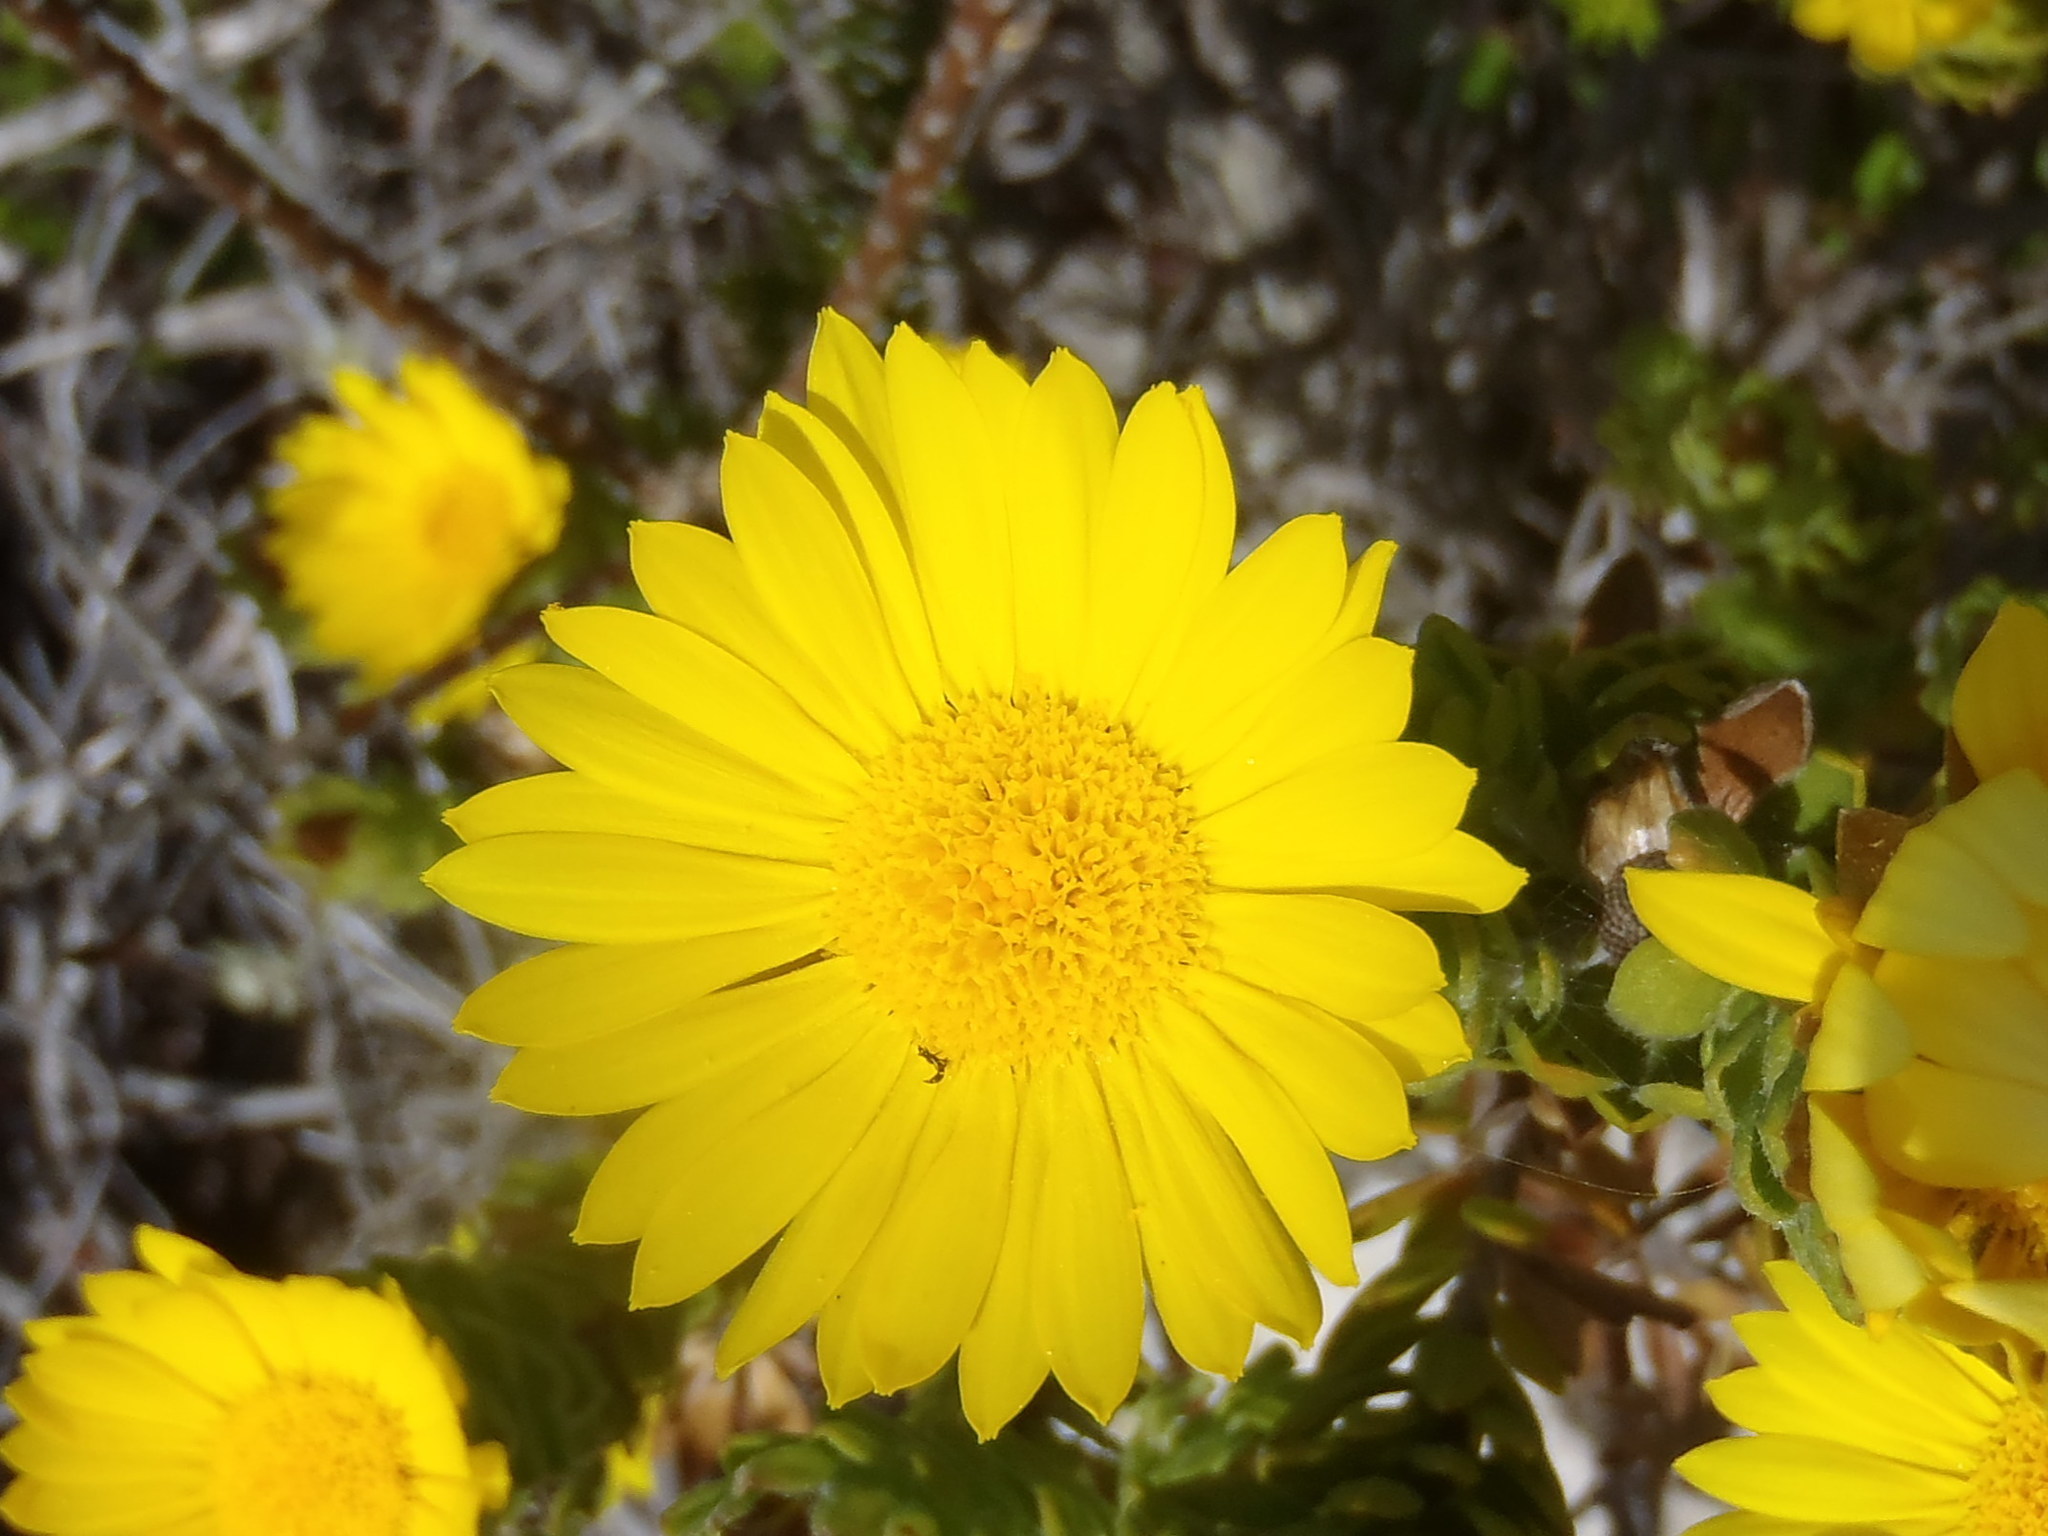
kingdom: Plantae
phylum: Tracheophyta
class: Magnoliopsida
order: Asterales
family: Asteraceae
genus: Oedera
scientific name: Oedera calycina
